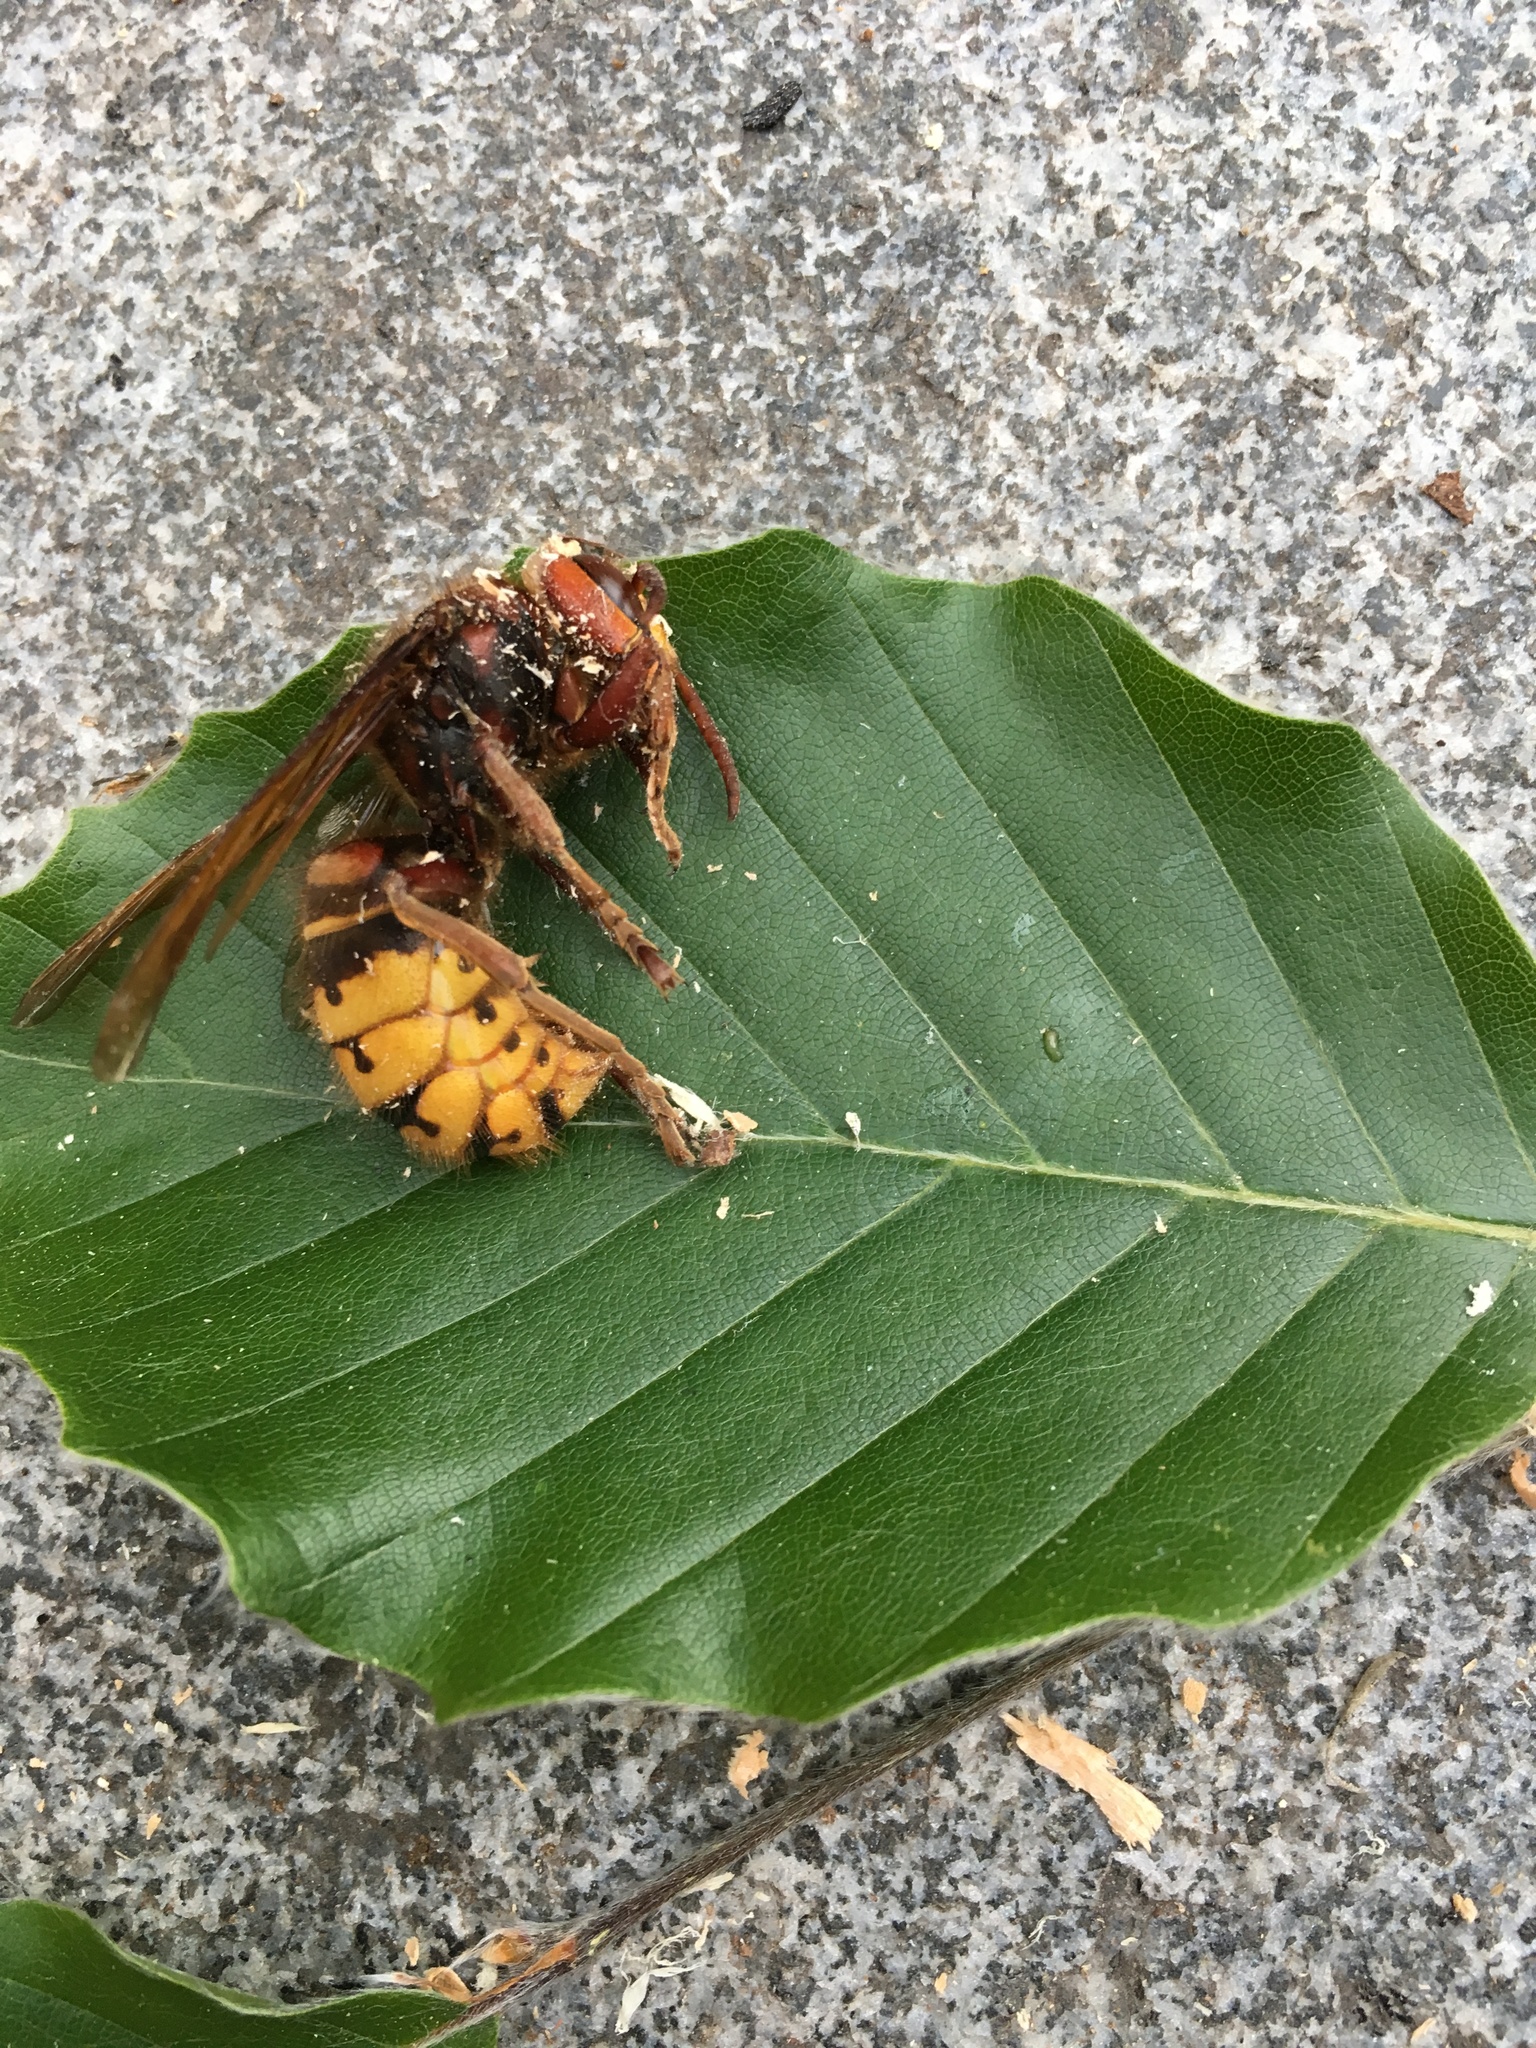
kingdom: Animalia
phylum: Arthropoda
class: Insecta
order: Hymenoptera
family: Vespidae
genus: Vespa
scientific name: Vespa crabro
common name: Hornet
